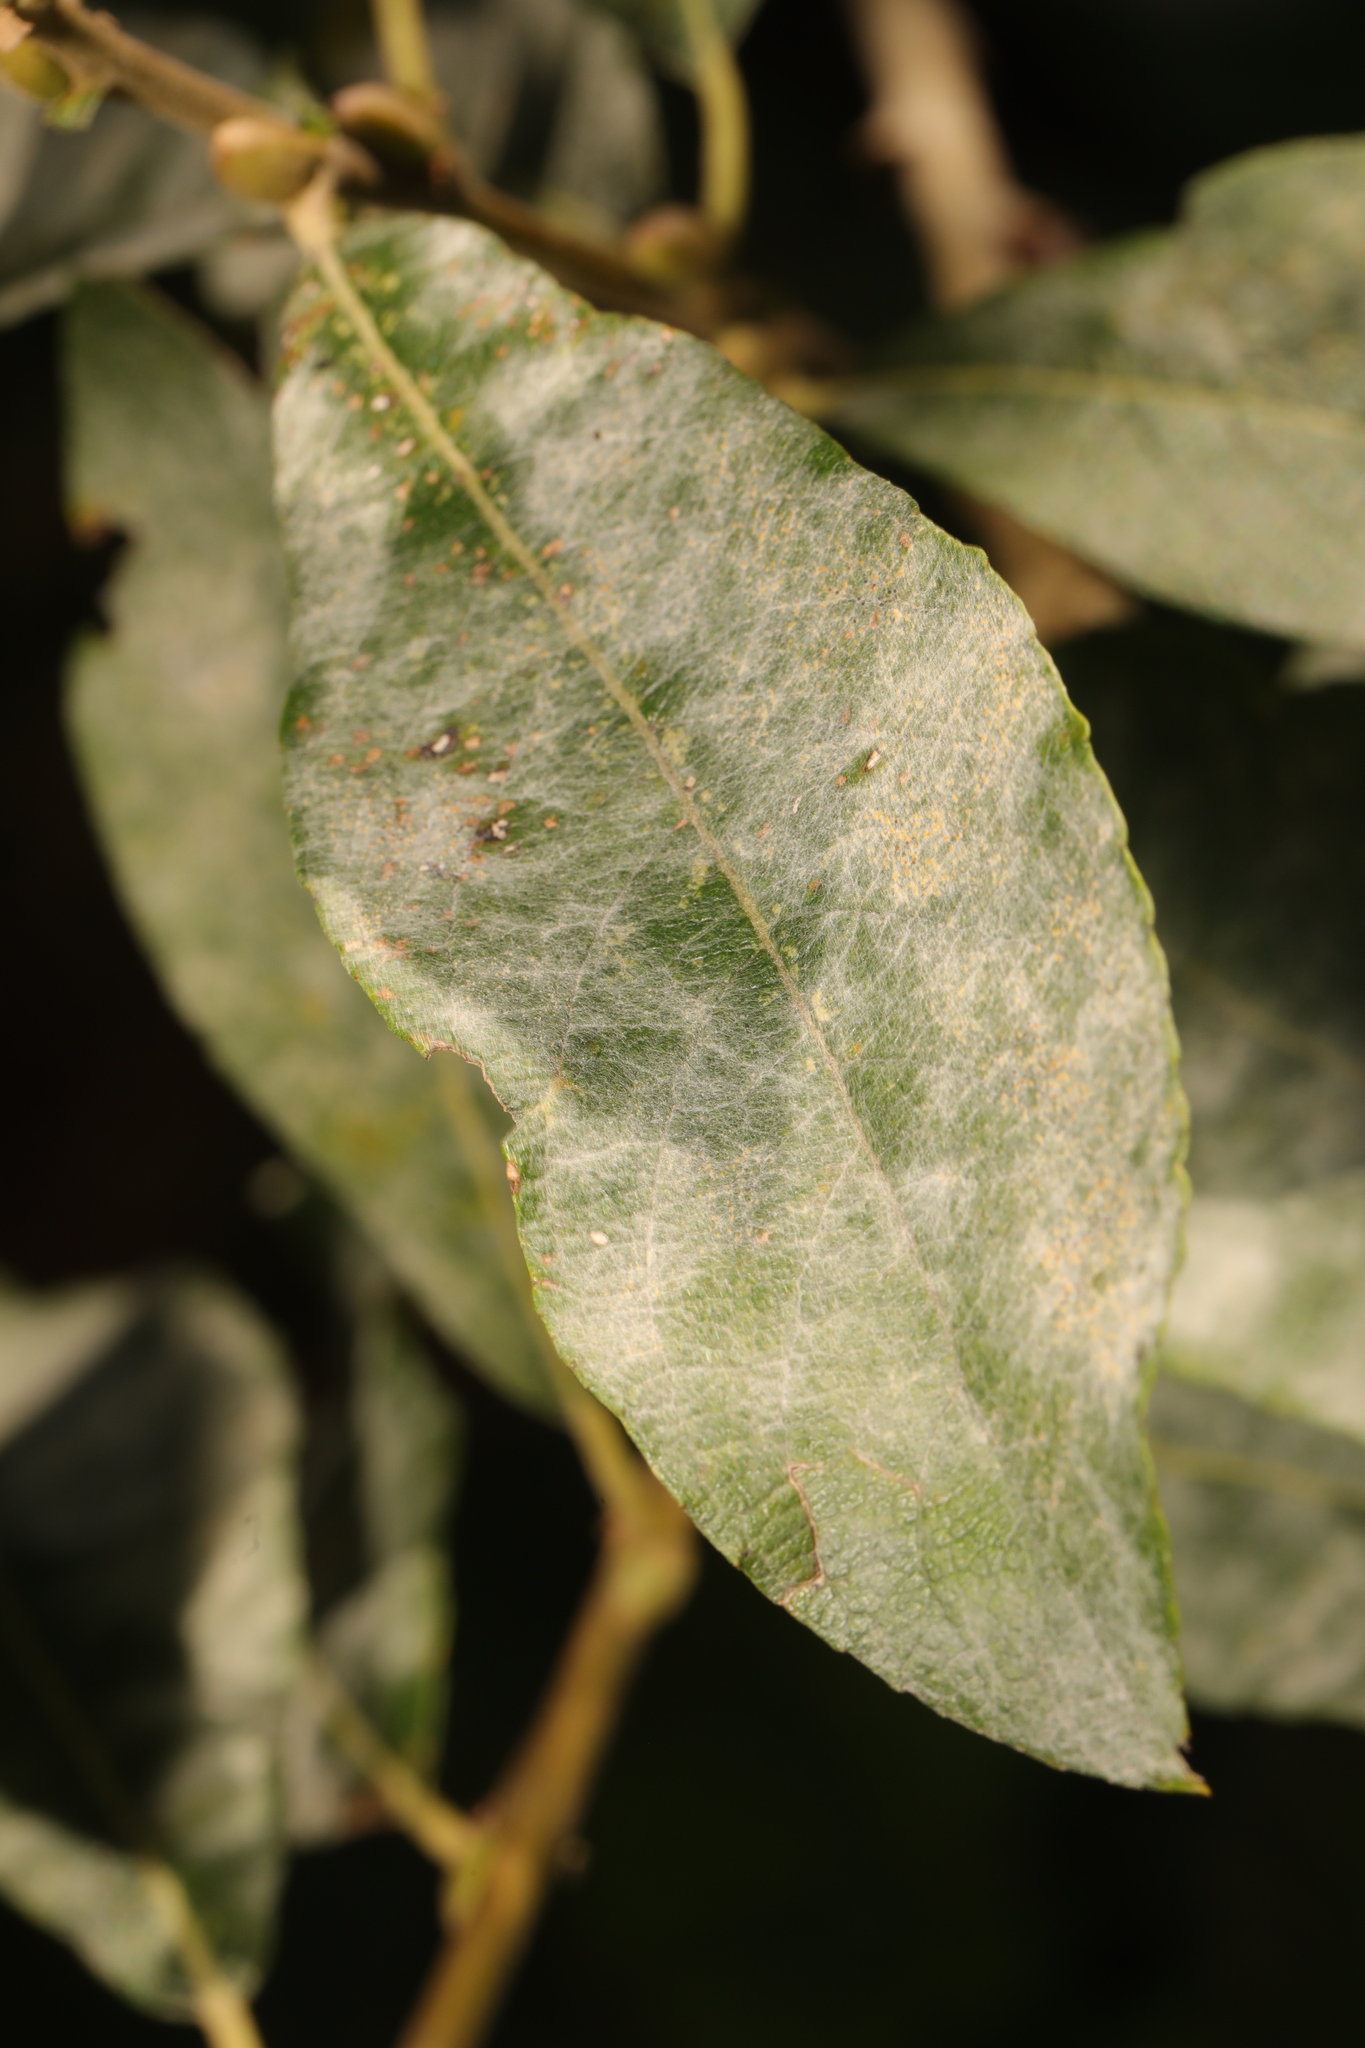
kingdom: Fungi
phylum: Ascomycota
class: Leotiomycetes
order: Helotiales
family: Erysiphaceae
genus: Erysiphe
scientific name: Erysiphe capreae
